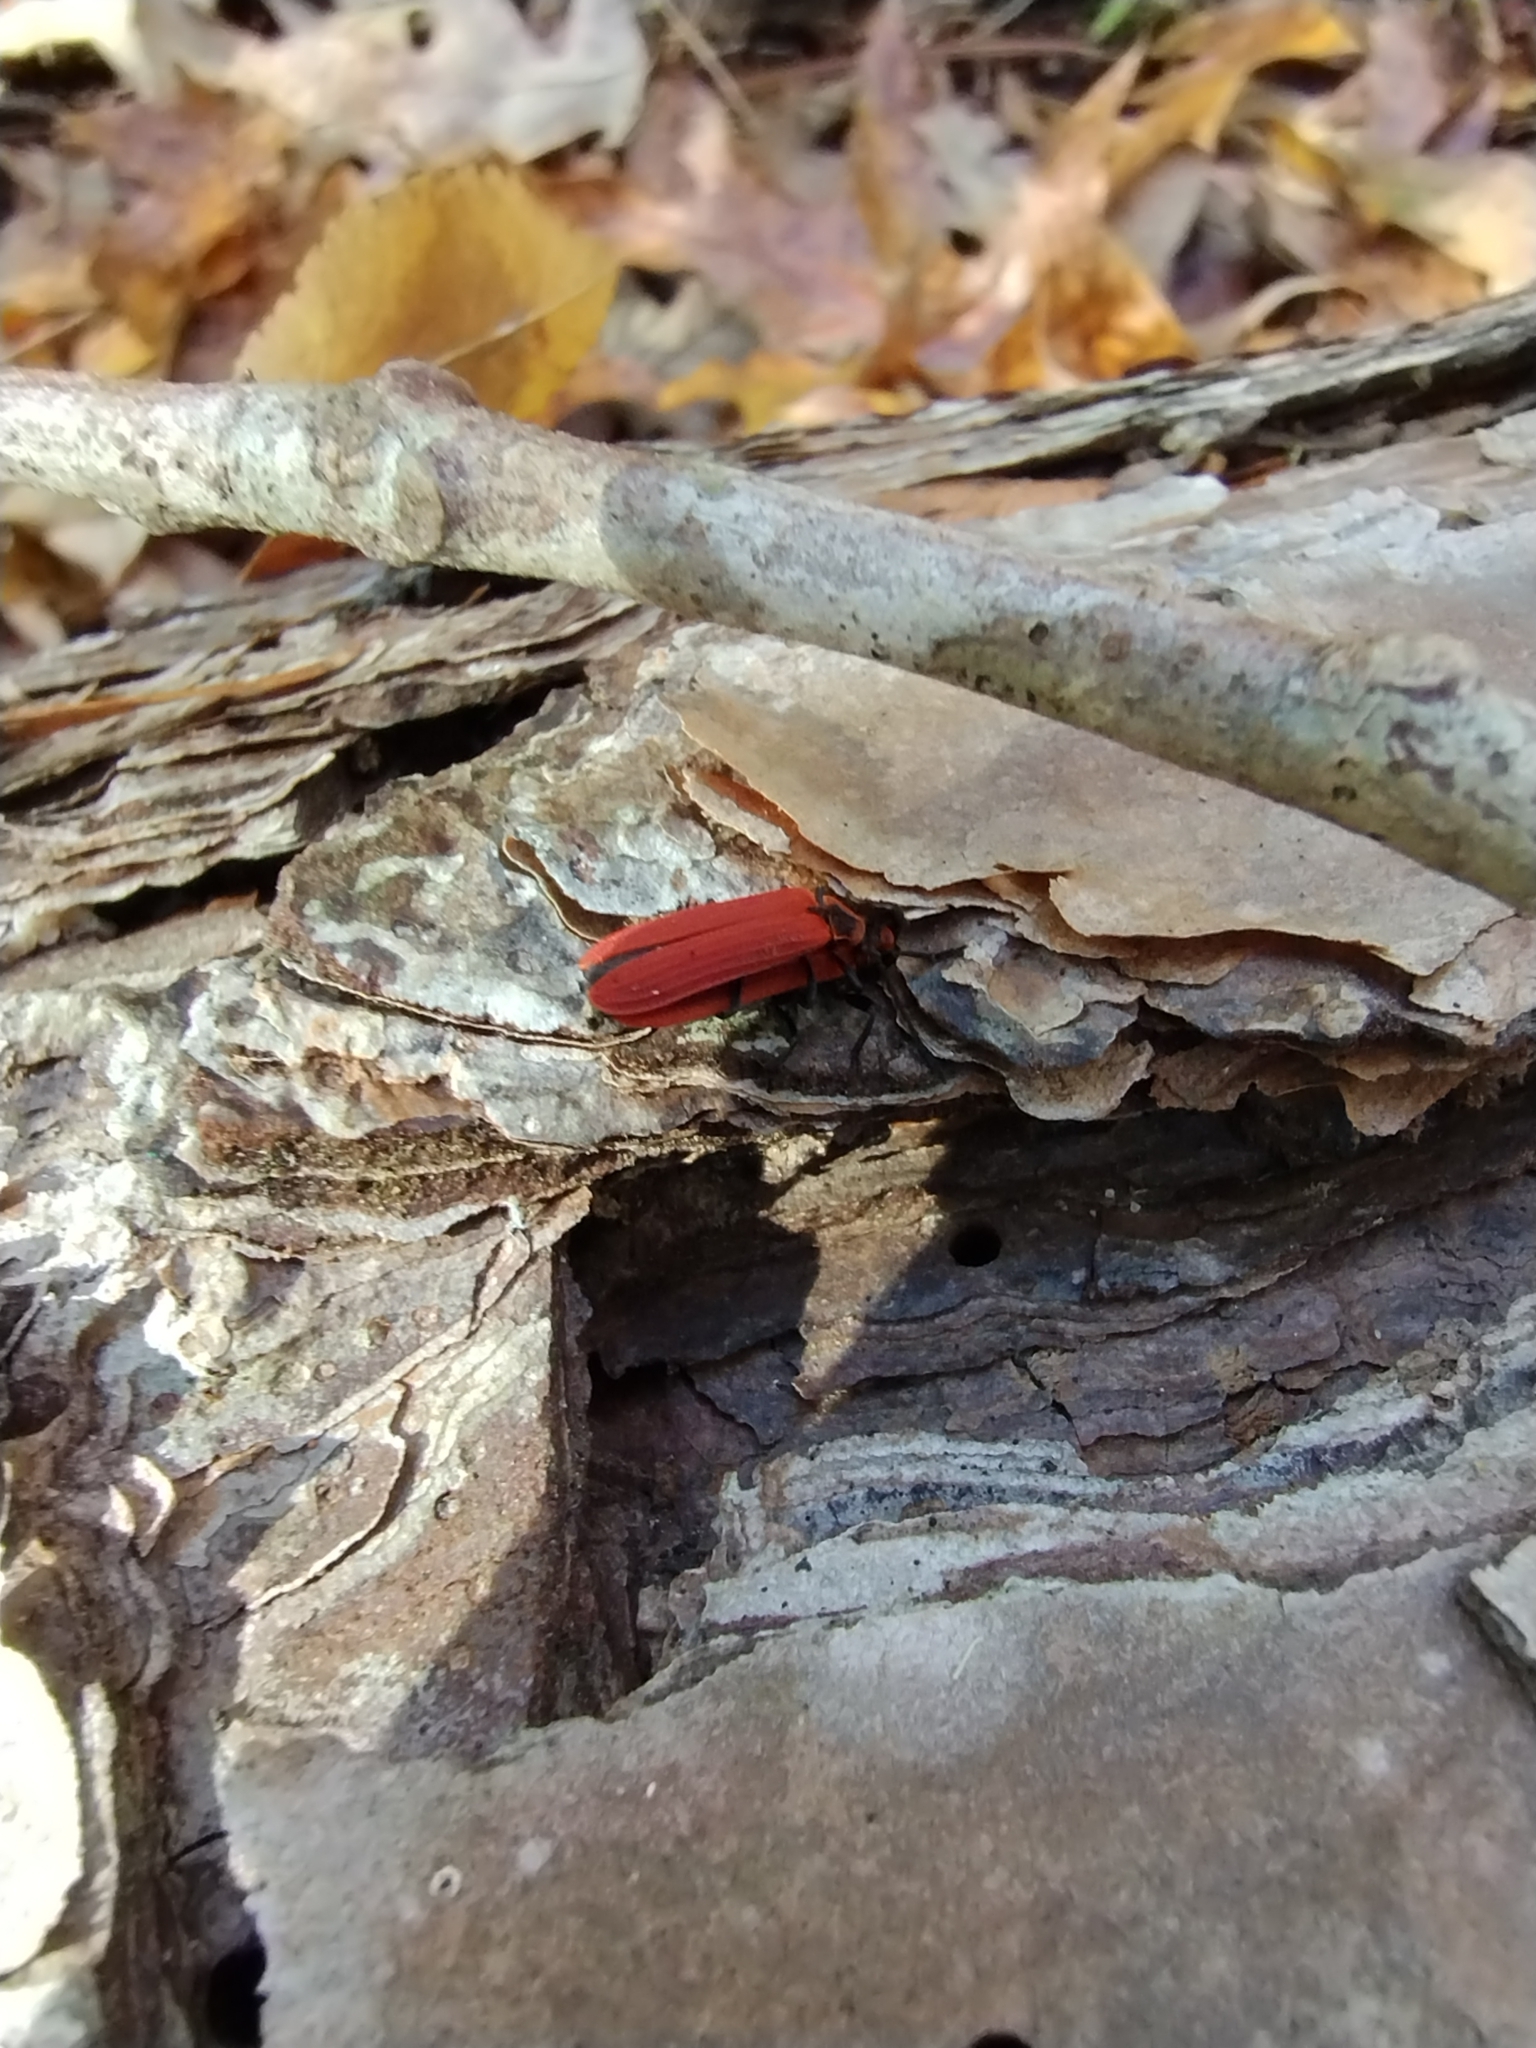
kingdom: Animalia
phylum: Arthropoda
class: Insecta
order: Coleoptera
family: Lycidae
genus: Dictyoptera
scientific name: Dictyoptera aurora
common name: Golden net-winged beetle
